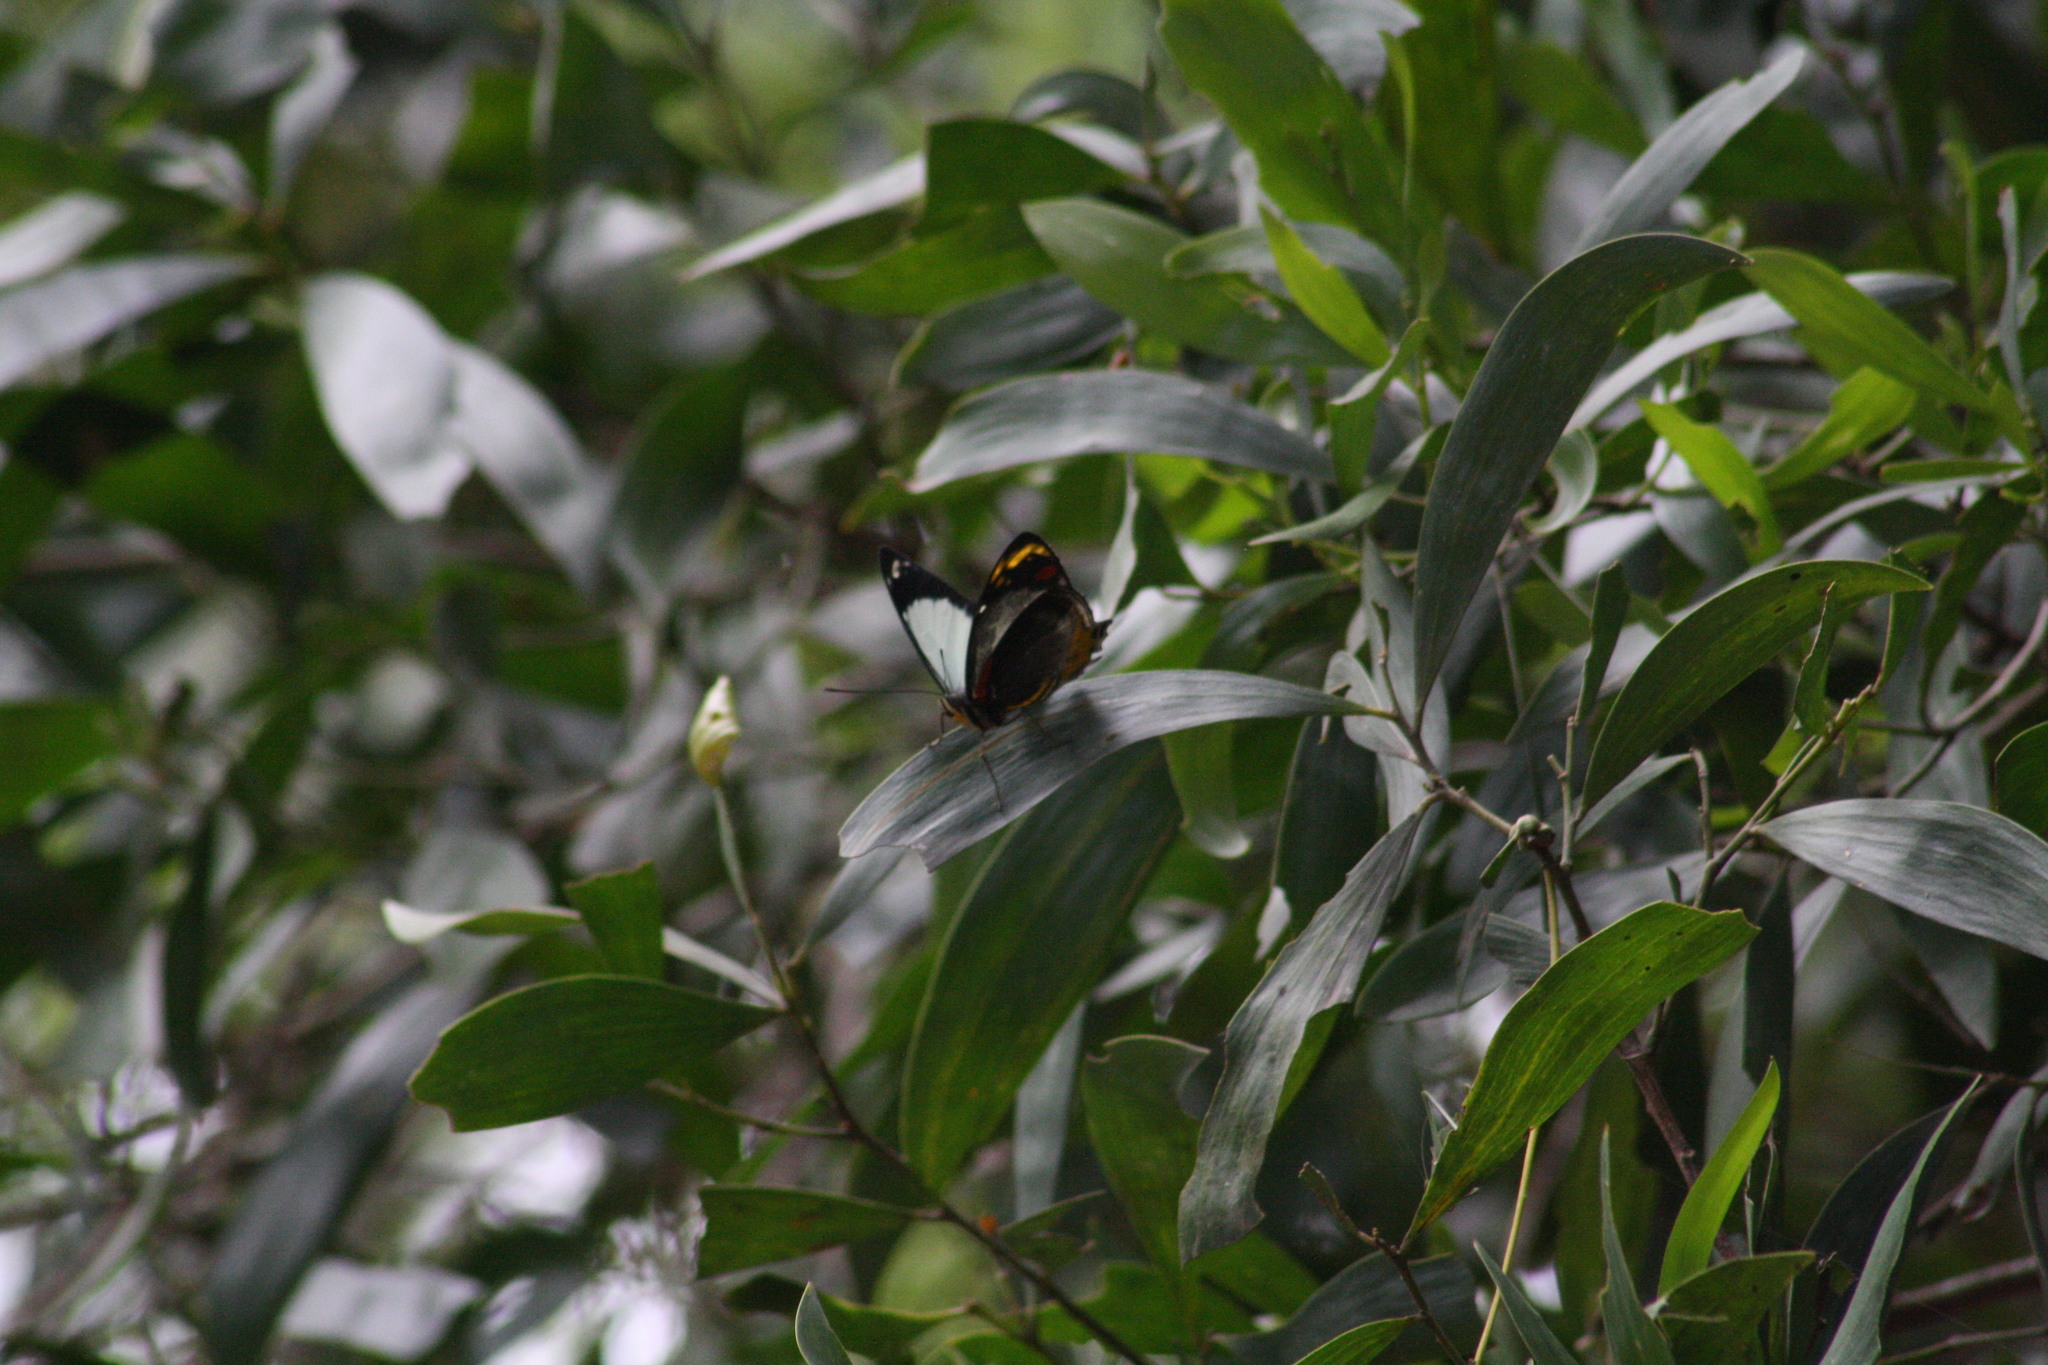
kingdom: Animalia
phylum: Arthropoda
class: Insecta
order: Lepidoptera
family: Nymphalidae
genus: Mynes
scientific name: Mynes geoffroyi
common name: Jezebel nymph
